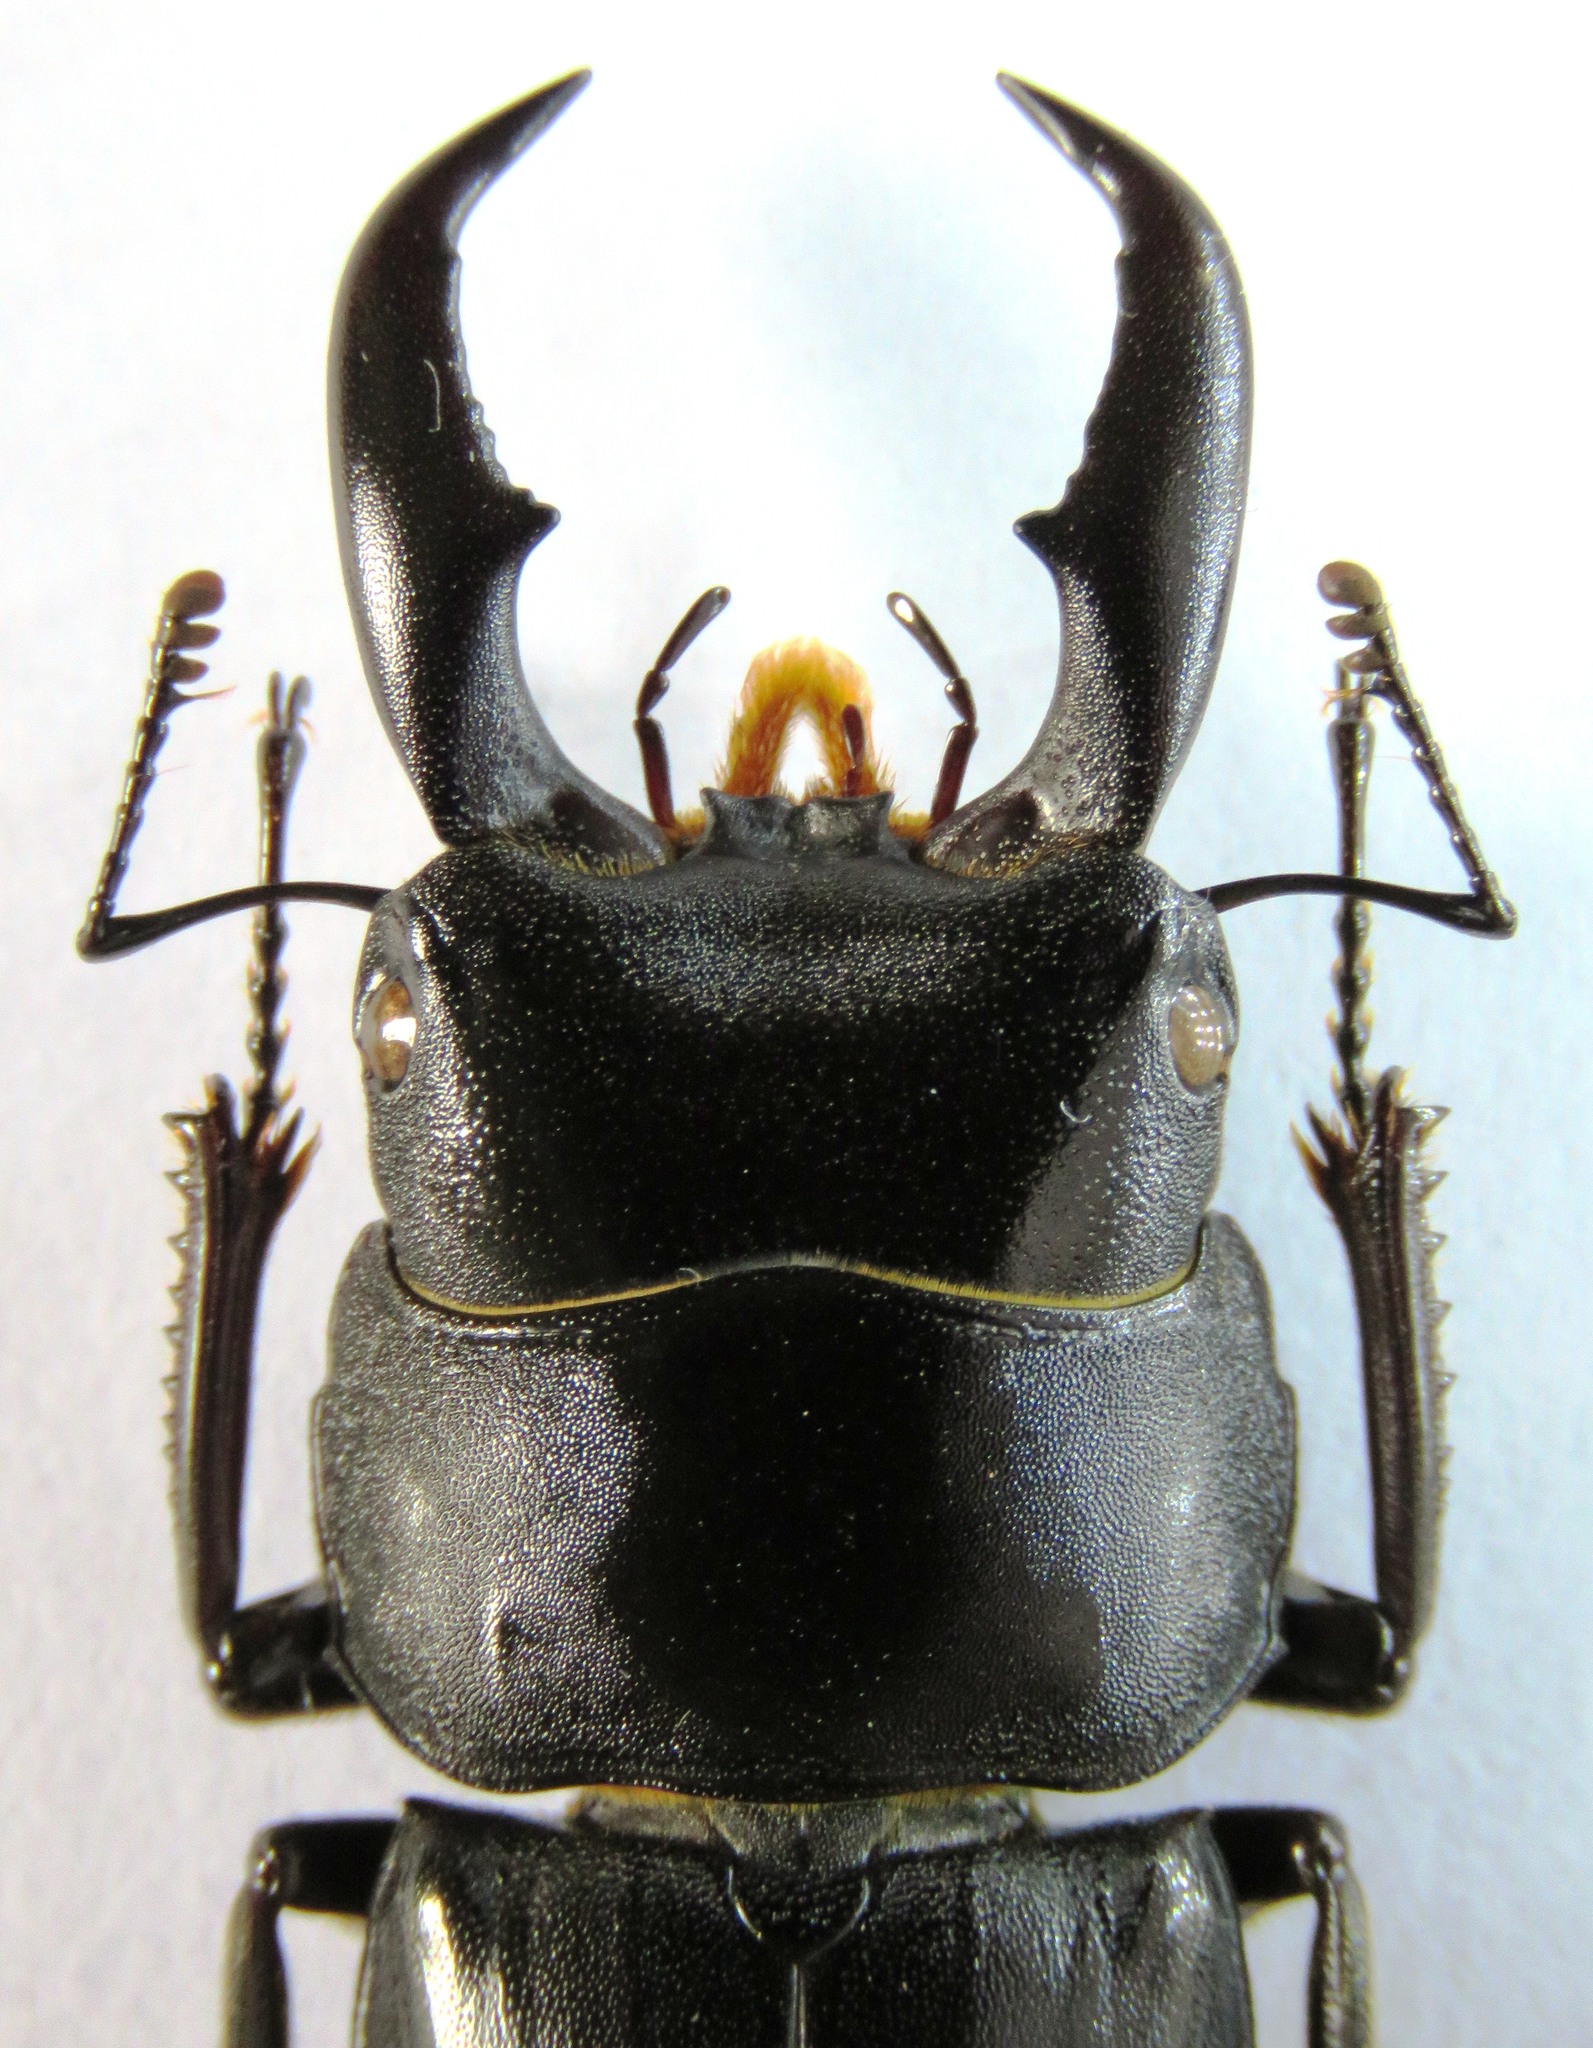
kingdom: Animalia
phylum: Arthropoda
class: Insecta
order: Coleoptera
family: Lucanidae
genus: Serrognathus
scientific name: Serrognathus titanus
